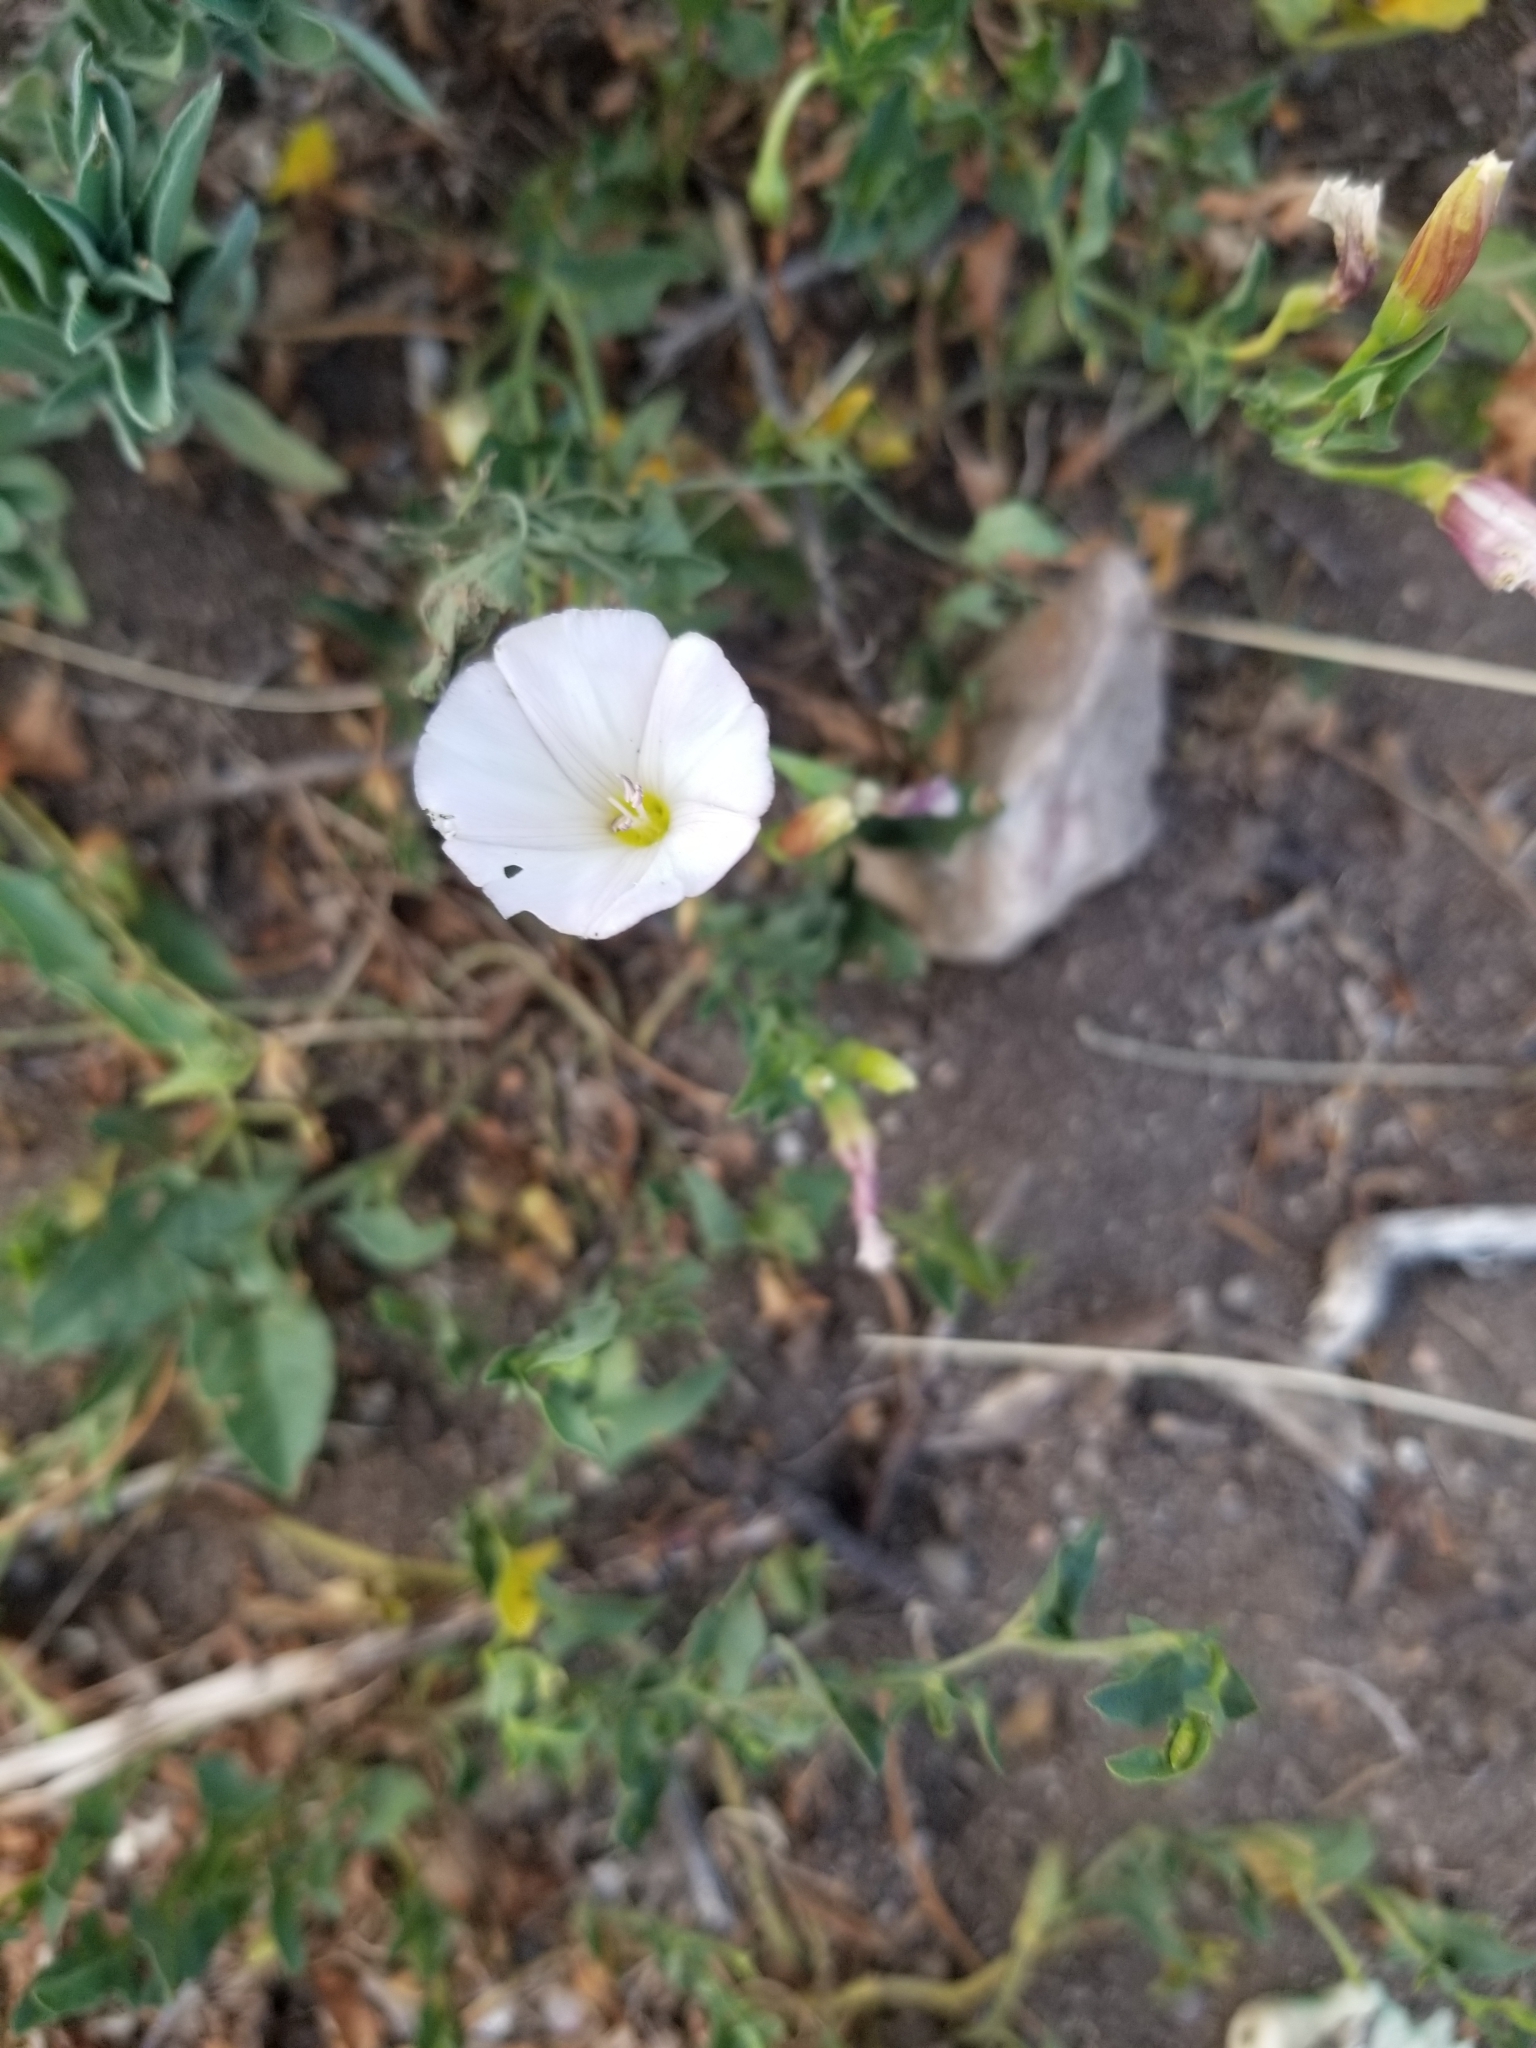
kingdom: Plantae
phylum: Tracheophyta
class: Magnoliopsida
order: Solanales
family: Convolvulaceae
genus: Convolvulus
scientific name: Convolvulus arvensis
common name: Field bindweed
